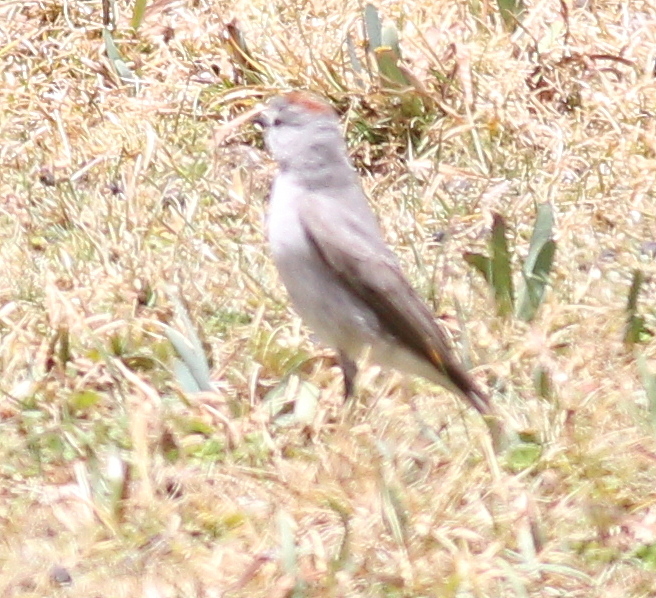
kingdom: Animalia
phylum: Chordata
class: Aves
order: Passeriformes
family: Tyrannidae
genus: Muscisaxicola
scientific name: Muscisaxicola rufivertex
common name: Rufous-naped ground tyrant
